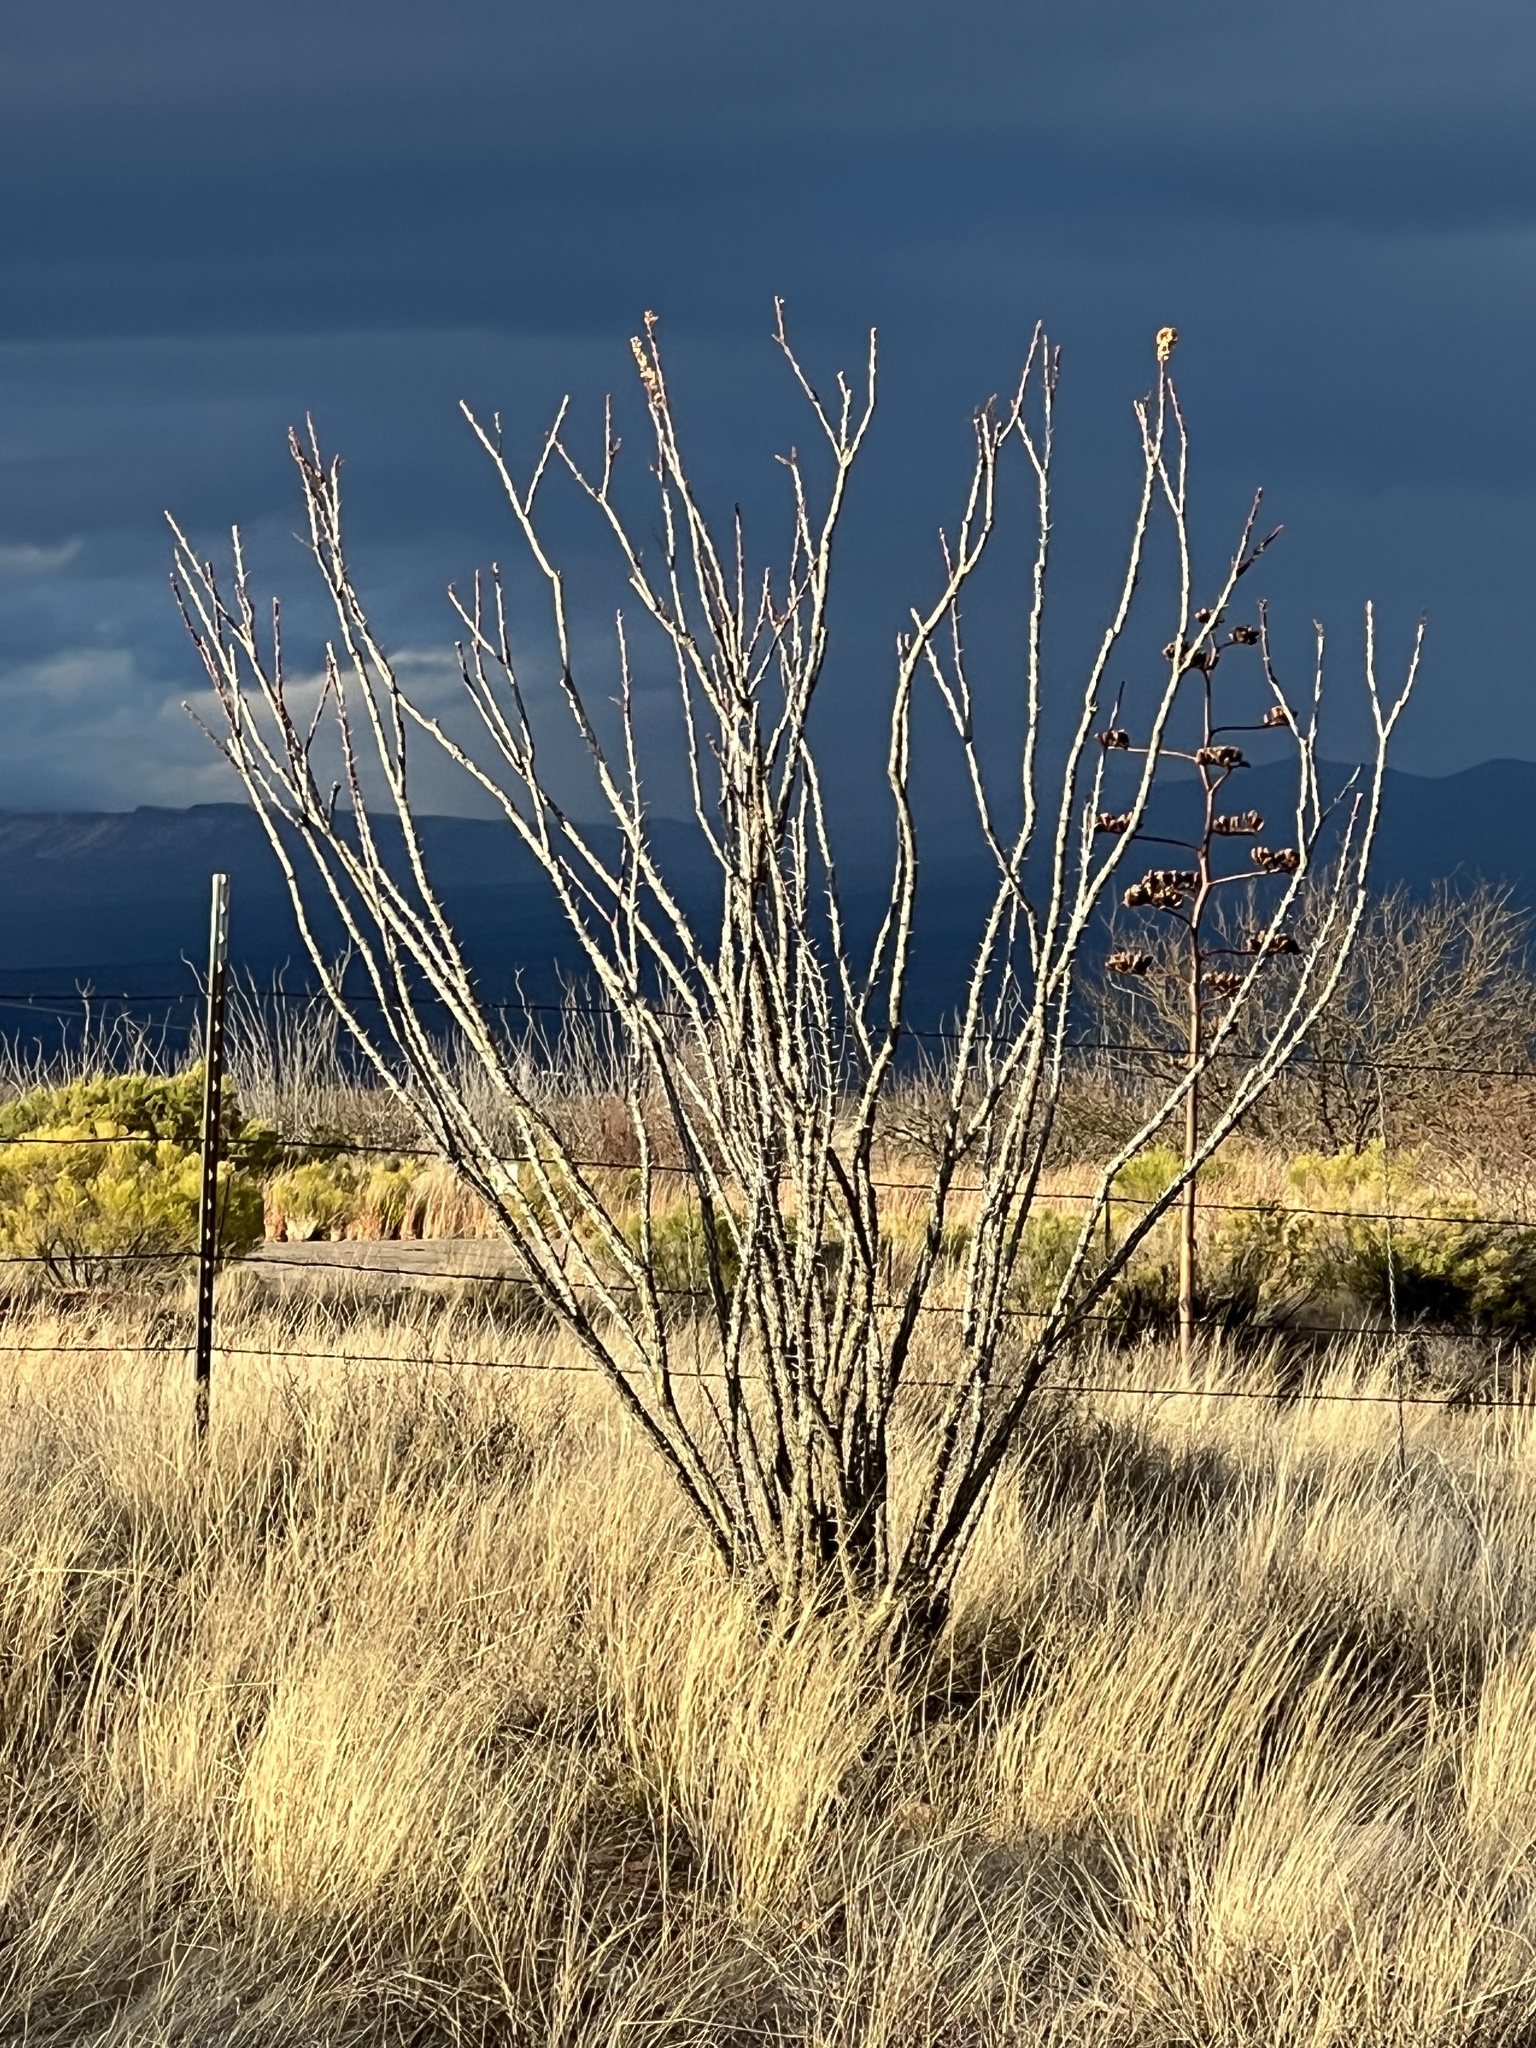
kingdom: Plantae
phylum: Tracheophyta
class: Magnoliopsida
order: Ericales
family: Fouquieriaceae
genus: Fouquieria
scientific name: Fouquieria splendens
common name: Vine-cactus
